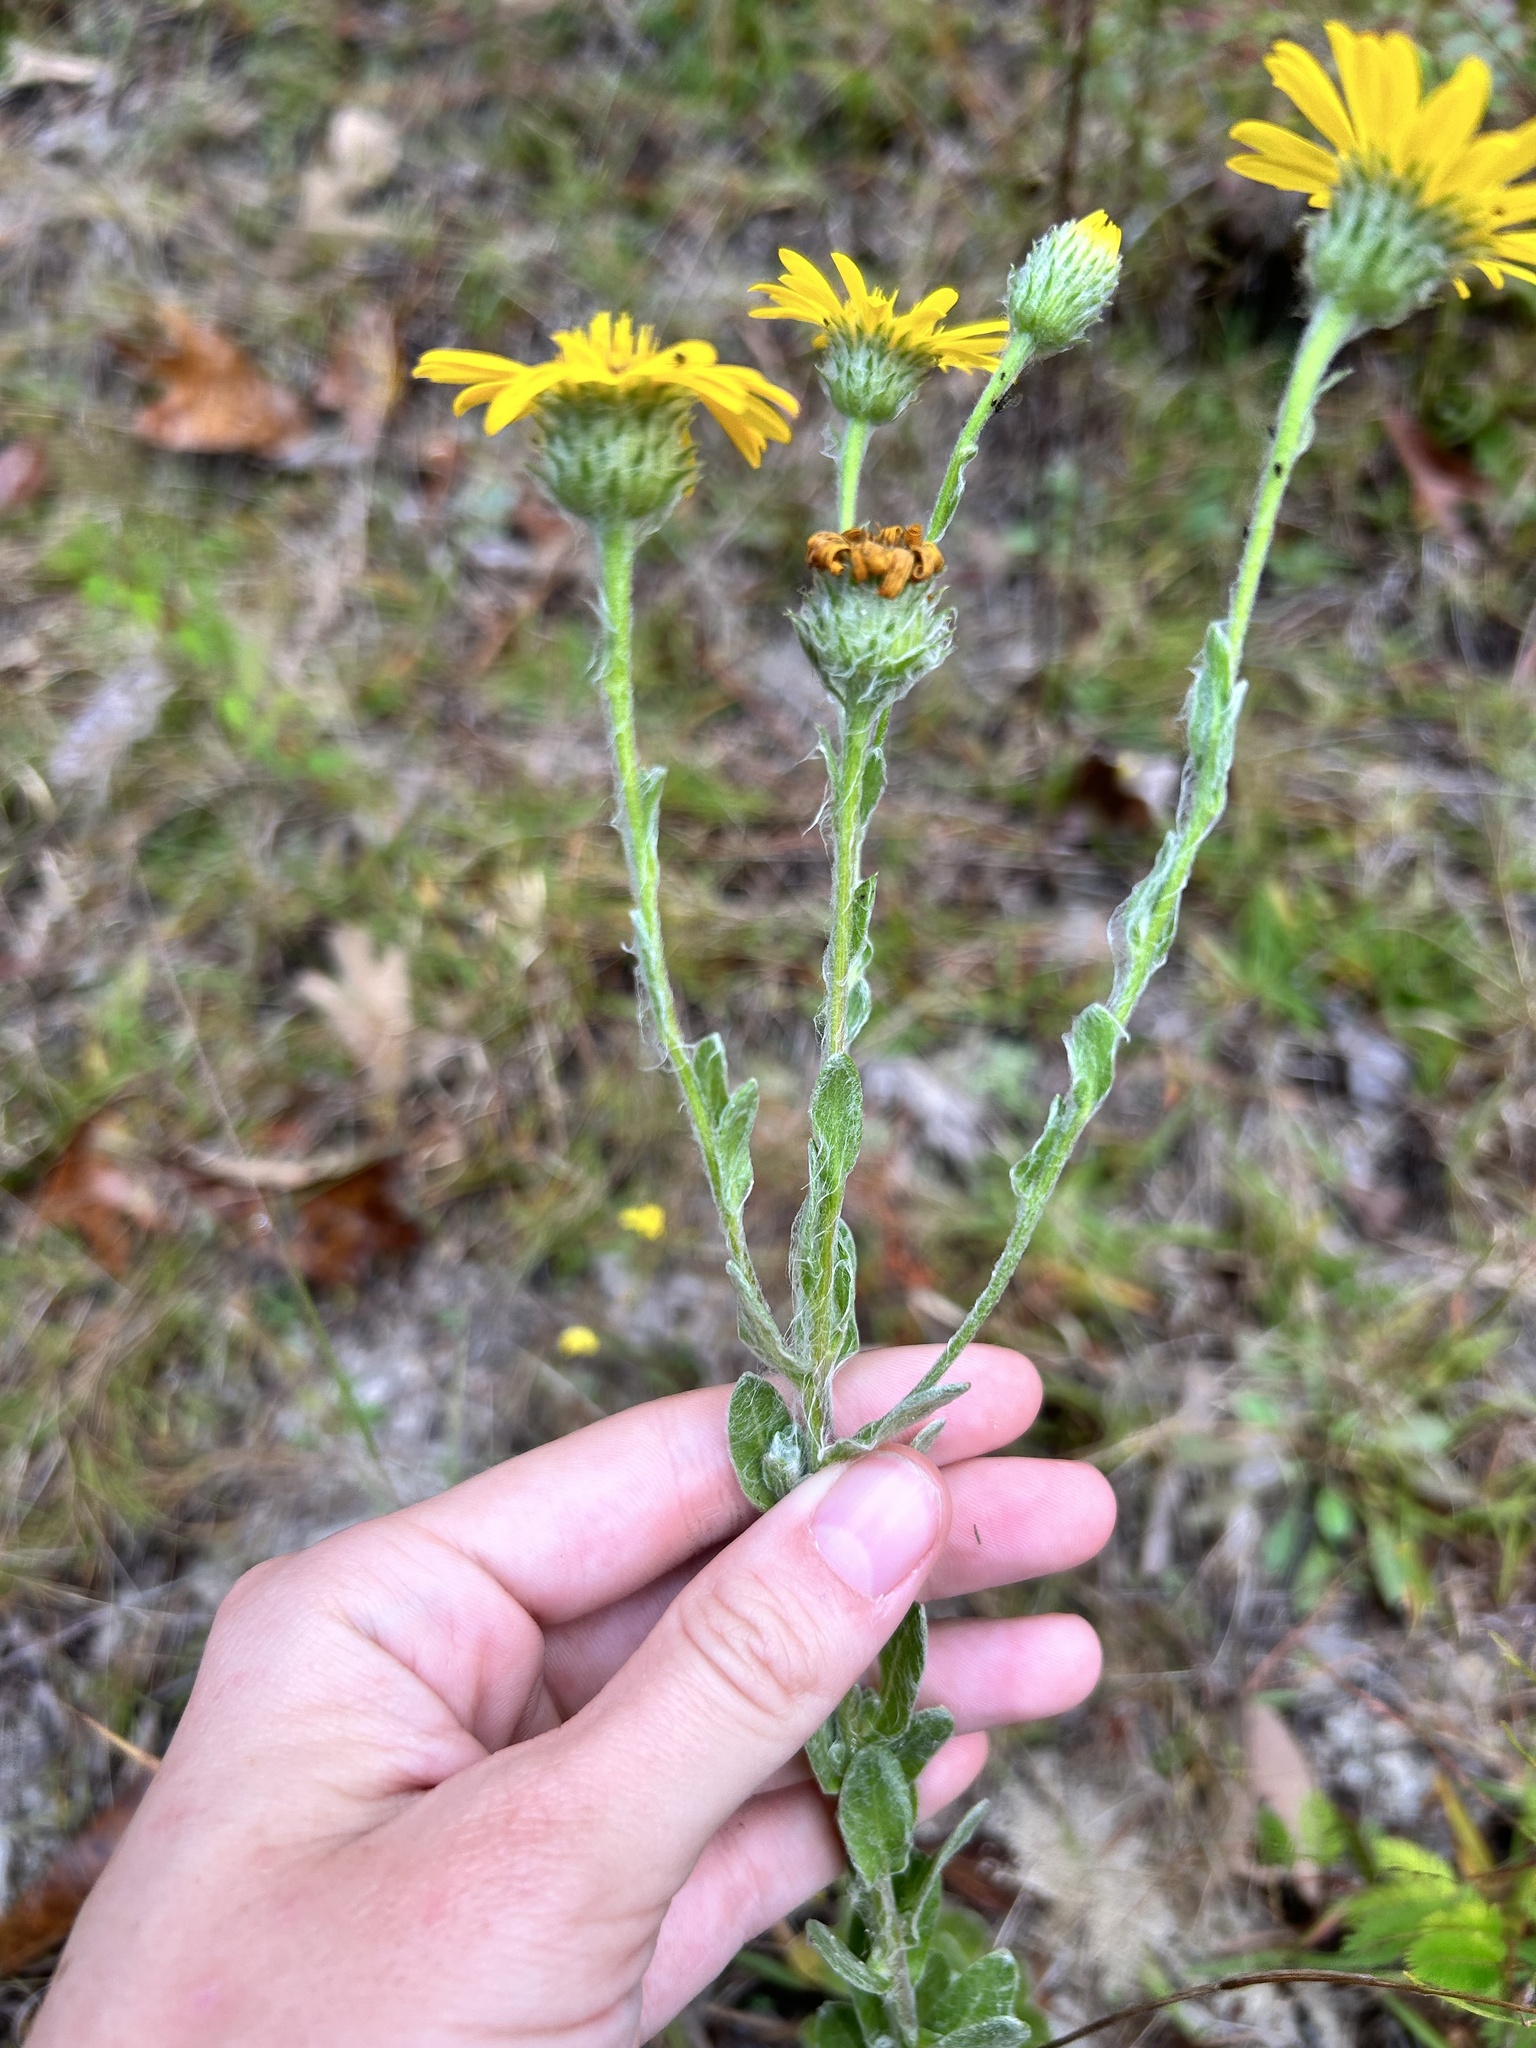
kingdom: Plantae
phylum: Tracheophyta
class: Magnoliopsida
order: Asterales
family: Asteraceae
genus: Chrysopsis
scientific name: Chrysopsis gossypina
